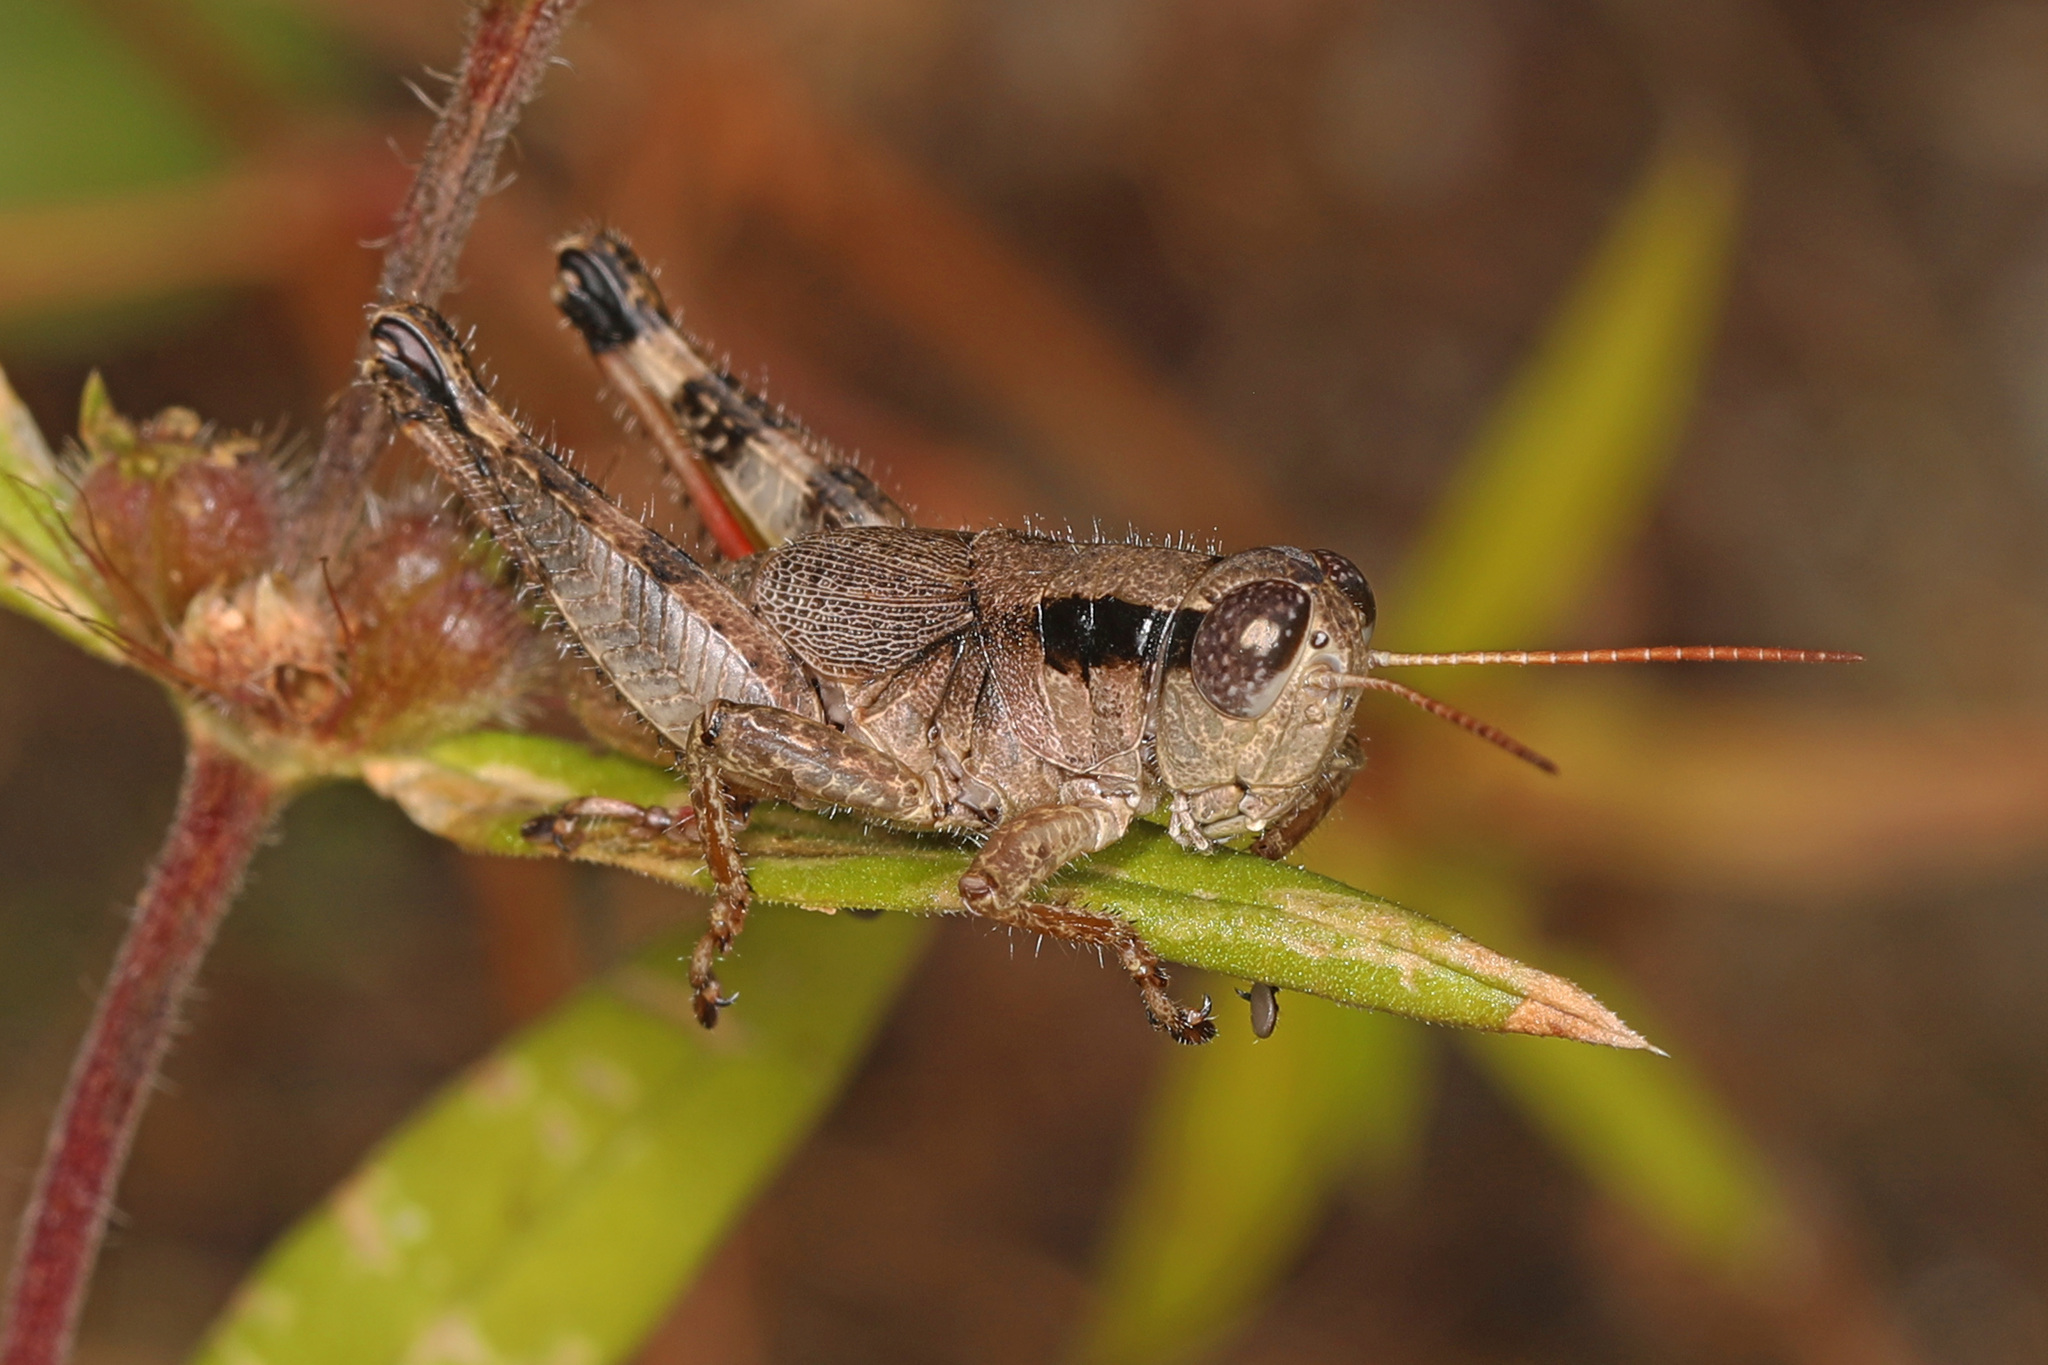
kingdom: Animalia
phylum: Arthropoda
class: Insecta
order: Orthoptera
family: Acrididae
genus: Melanoplus
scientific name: Melanoplus scudderi
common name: Scudder's short-winged locust
